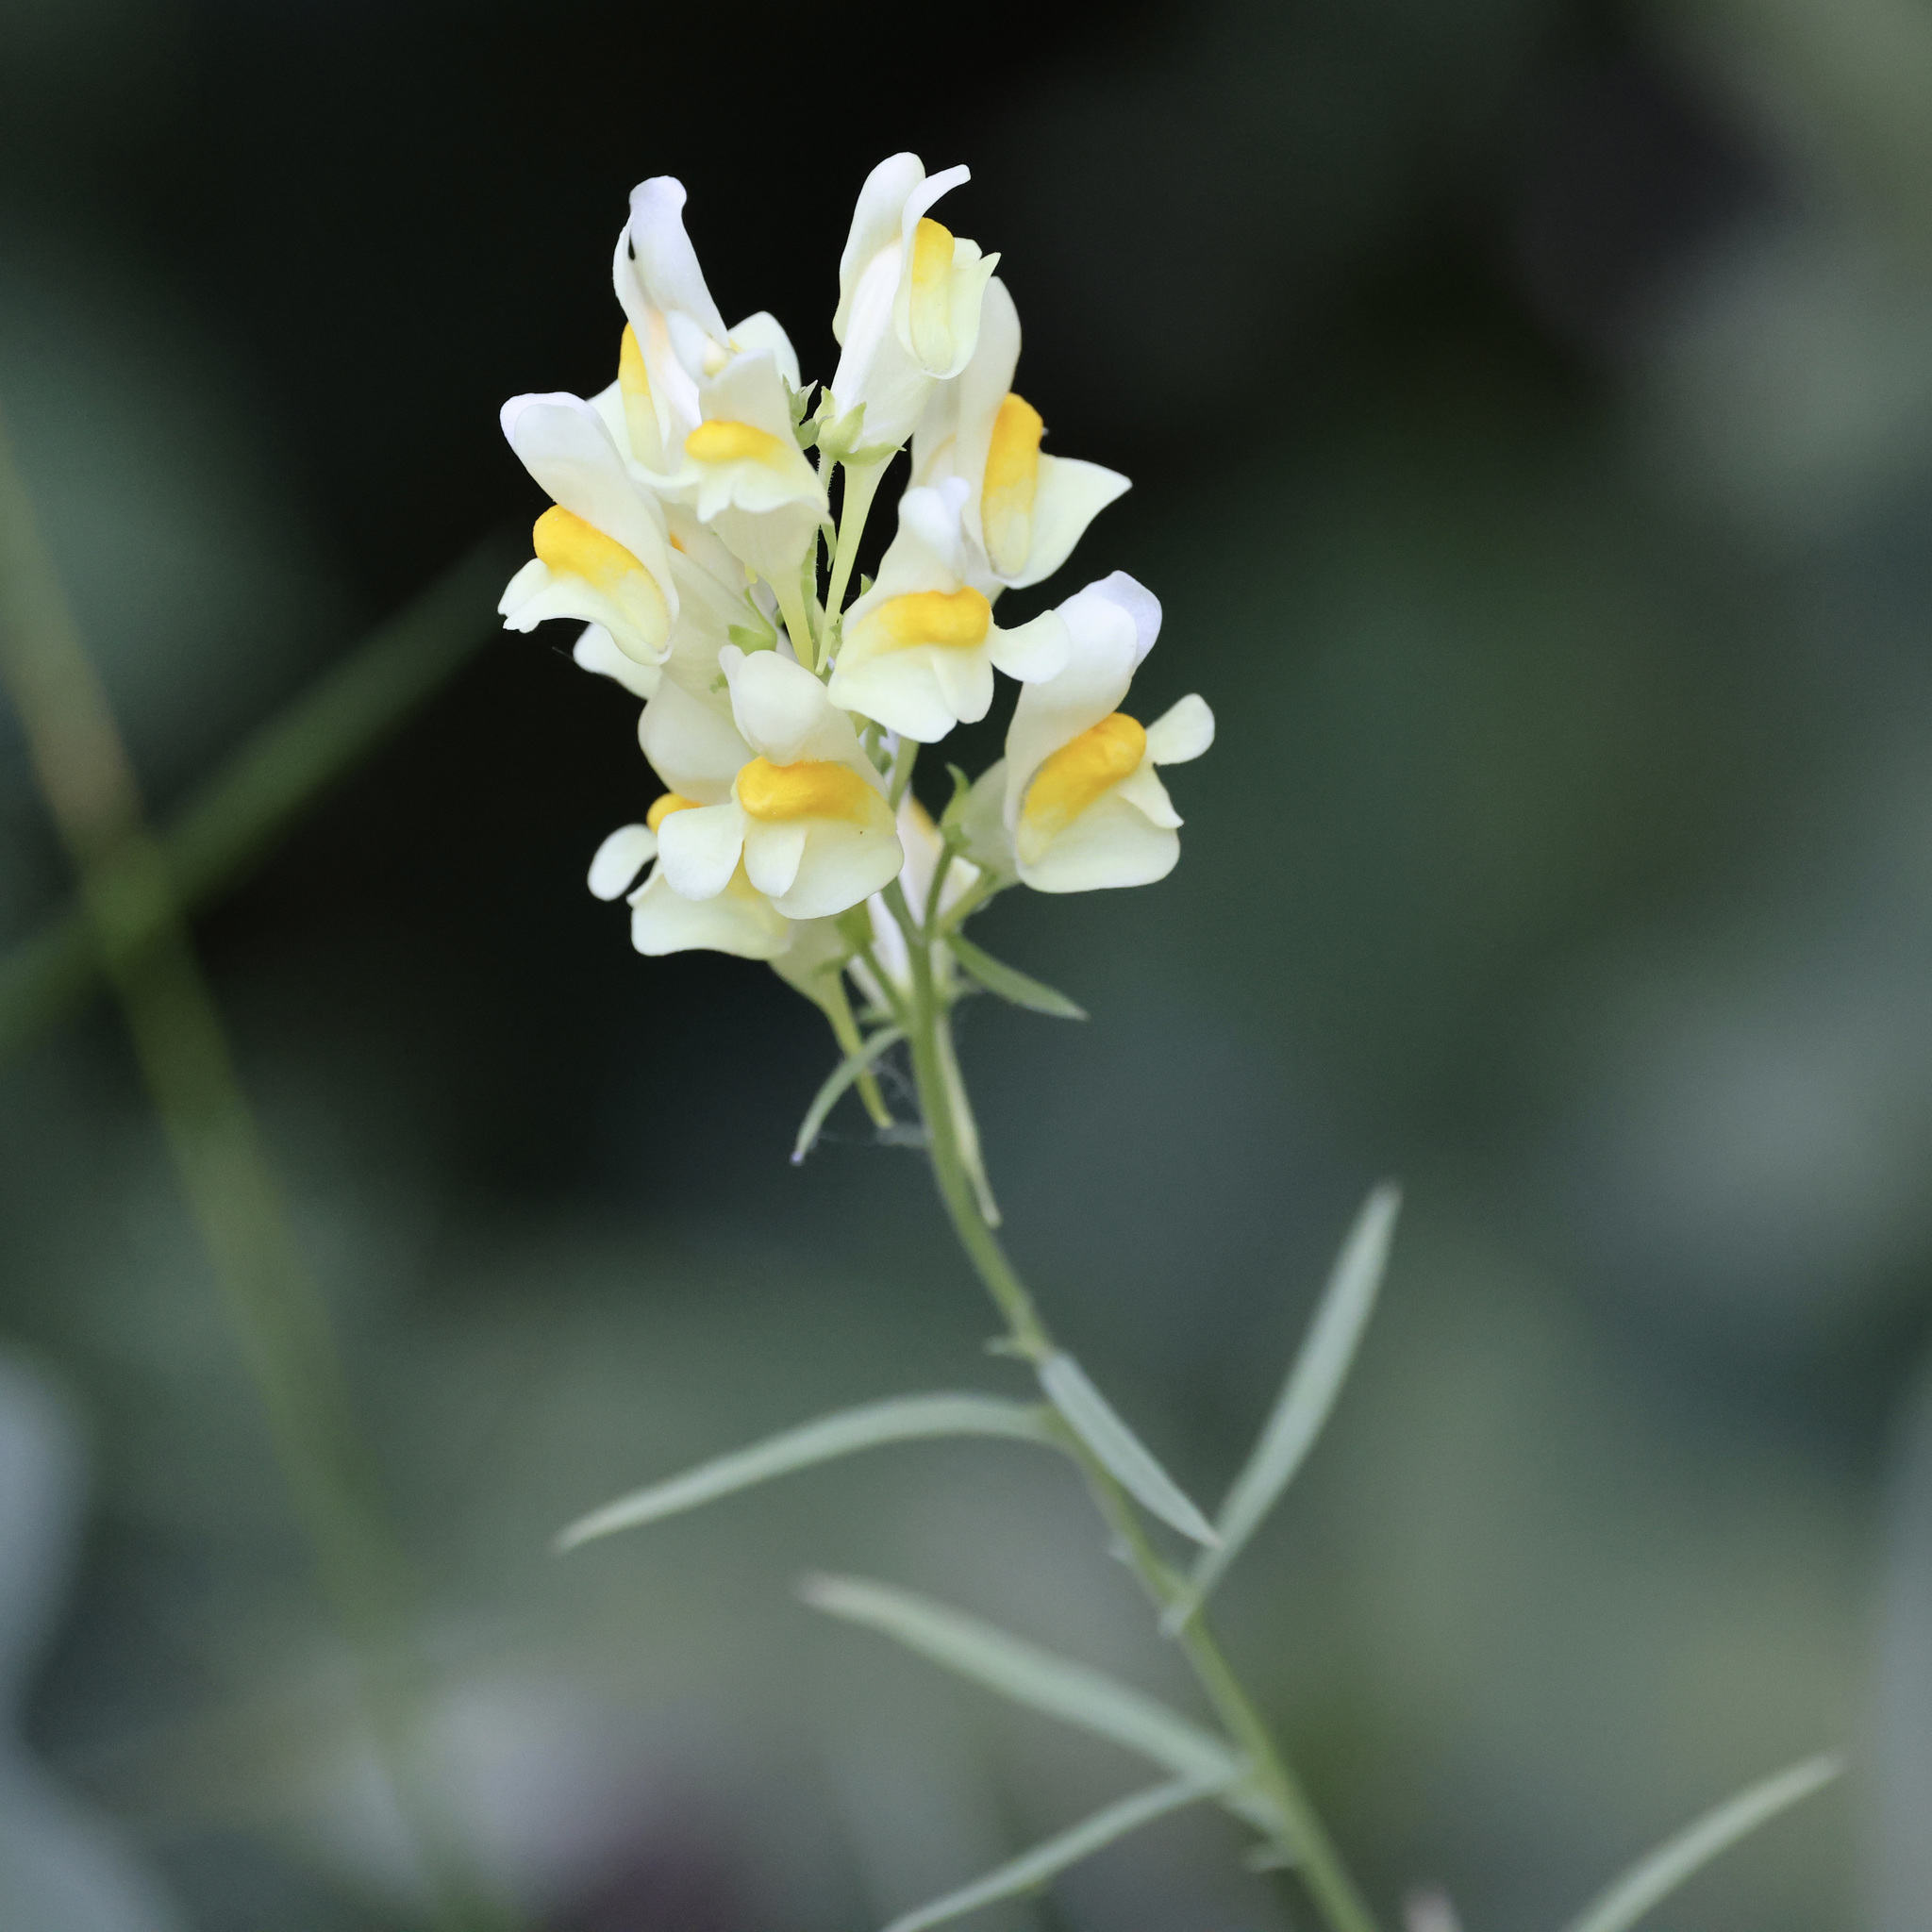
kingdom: Plantae
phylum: Tracheophyta
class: Magnoliopsida
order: Lamiales
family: Plantaginaceae
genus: Linaria
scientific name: Linaria vulgaris
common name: Butter and eggs
